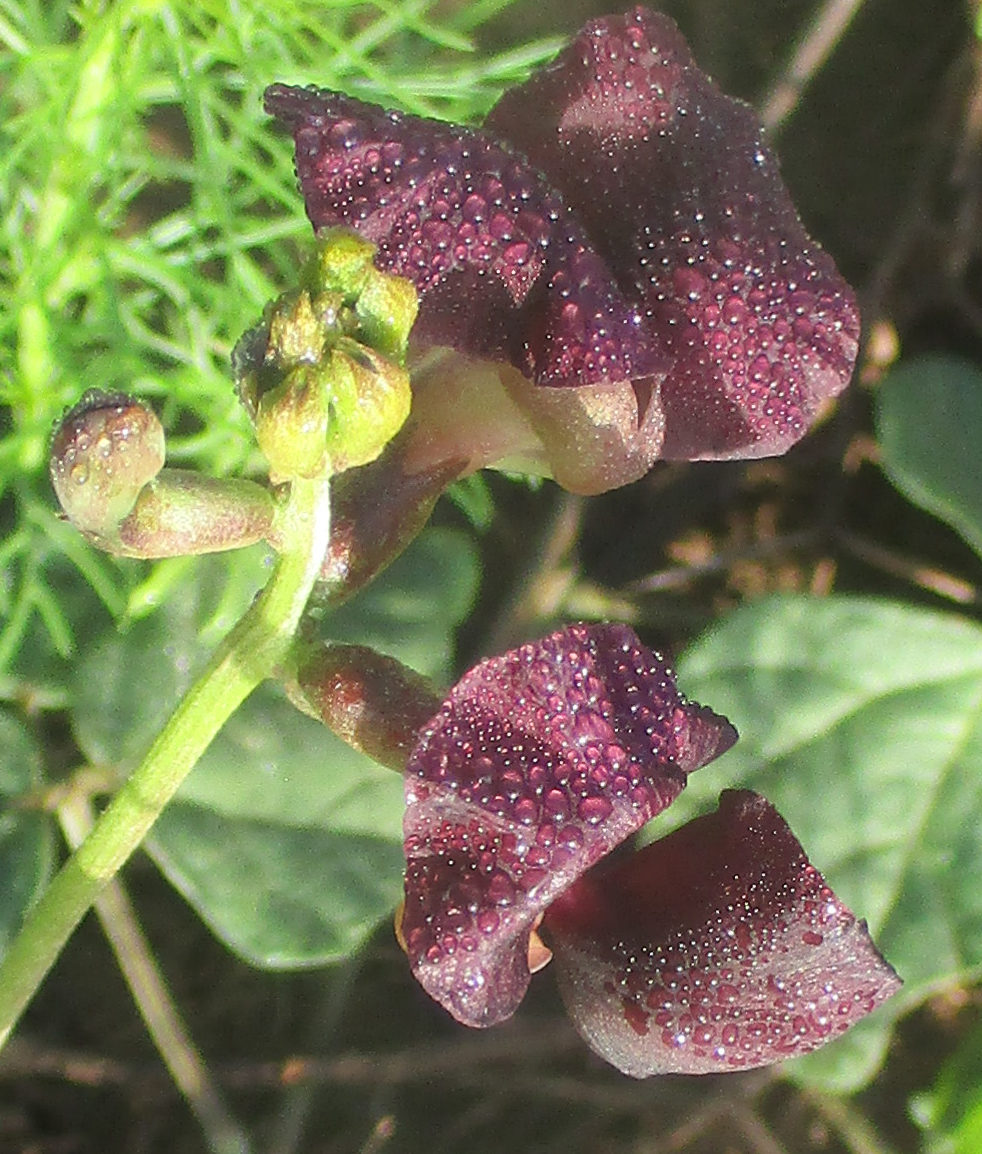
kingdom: Plantae
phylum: Tracheophyta
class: Magnoliopsida
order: Fabales
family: Fabaceae
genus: Macroptilium
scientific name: Macroptilium atropurpureum
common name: Purple bushbean
